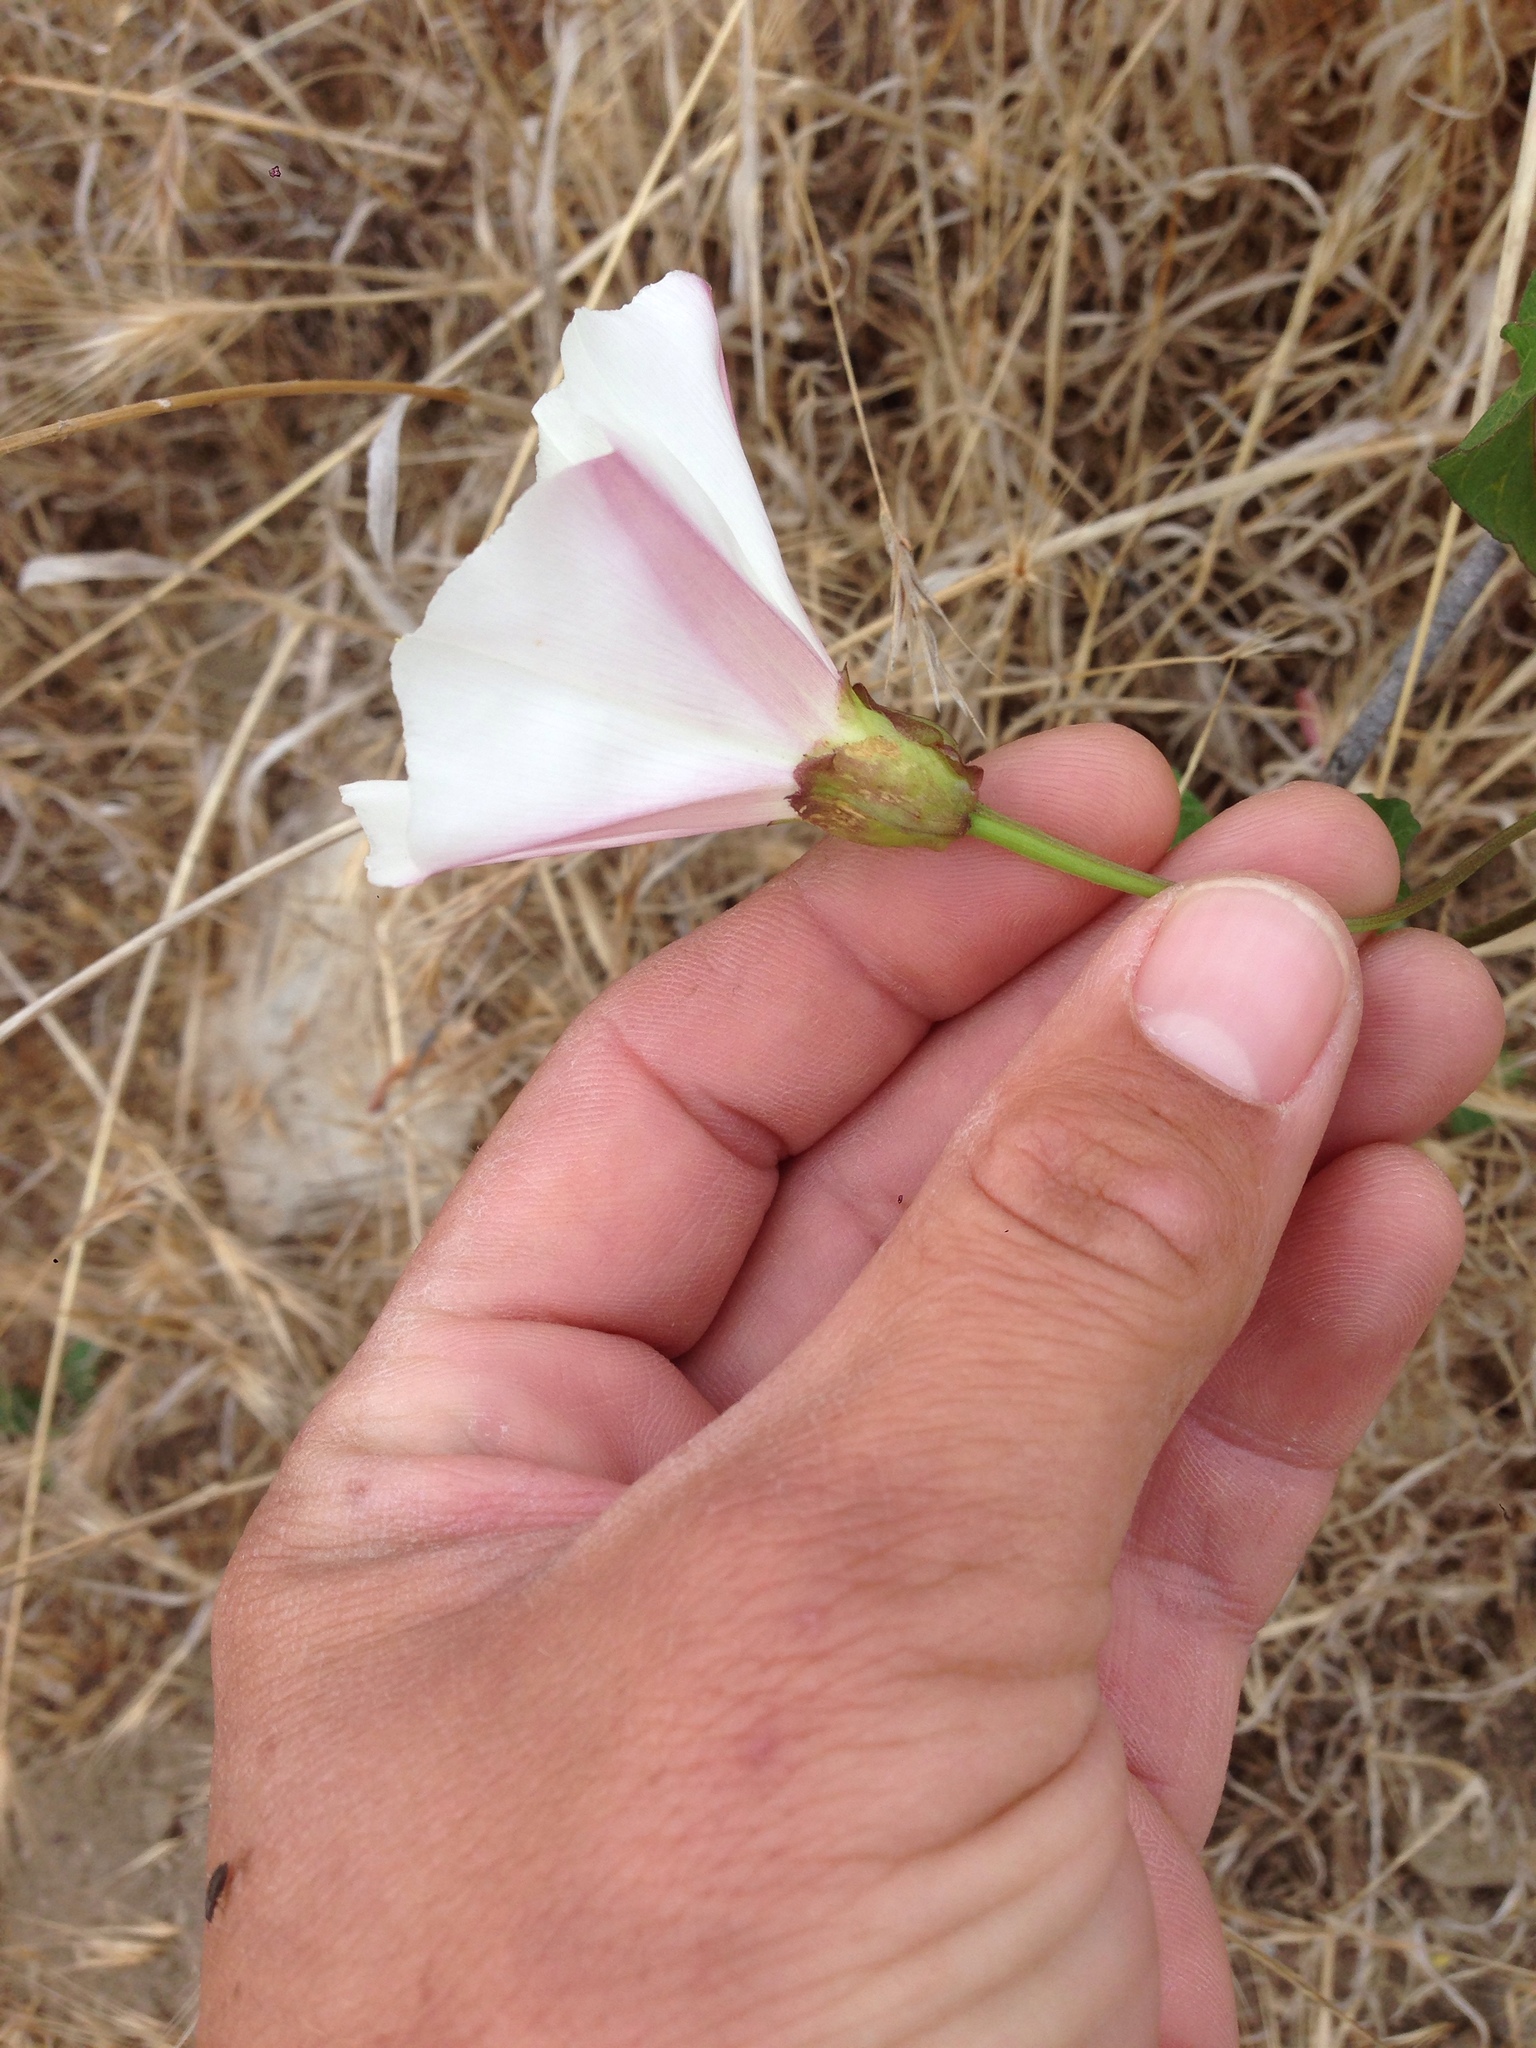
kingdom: Plantae
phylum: Tracheophyta
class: Magnoliopsida
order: Solanales
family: Convolvulaceae
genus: Calystegia
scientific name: Calystegia macrostegia
